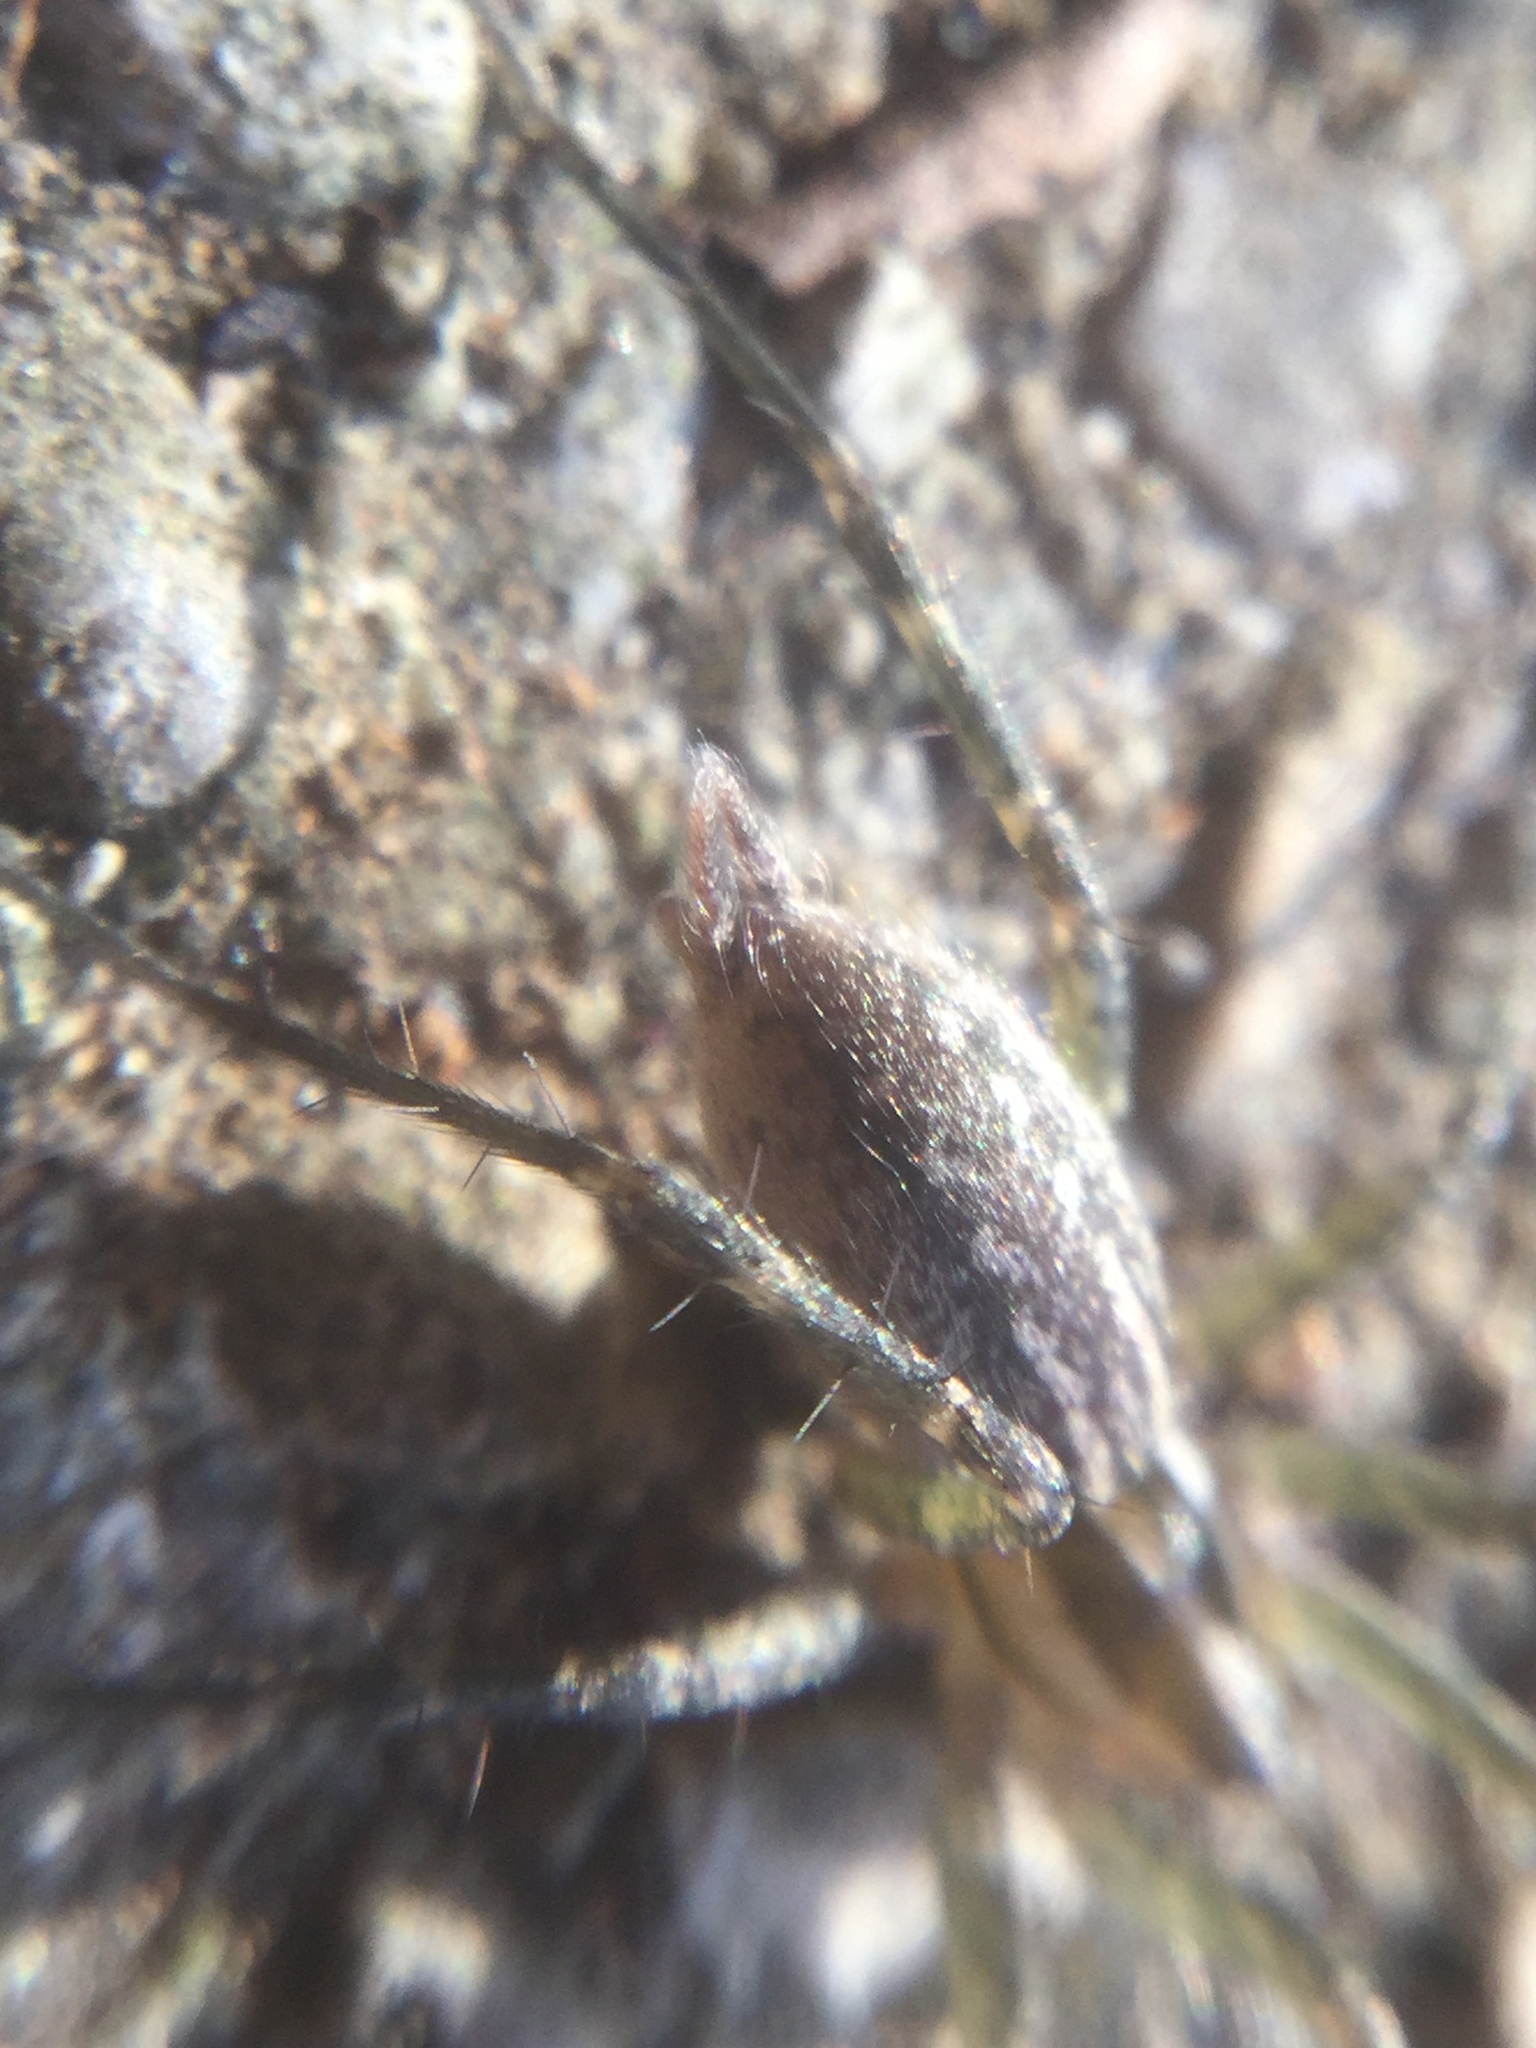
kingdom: Animalia
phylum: Arthropoda
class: Arachnida
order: Araneae
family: Agelenidae
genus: Agelenopsis
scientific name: Agelenopsis
